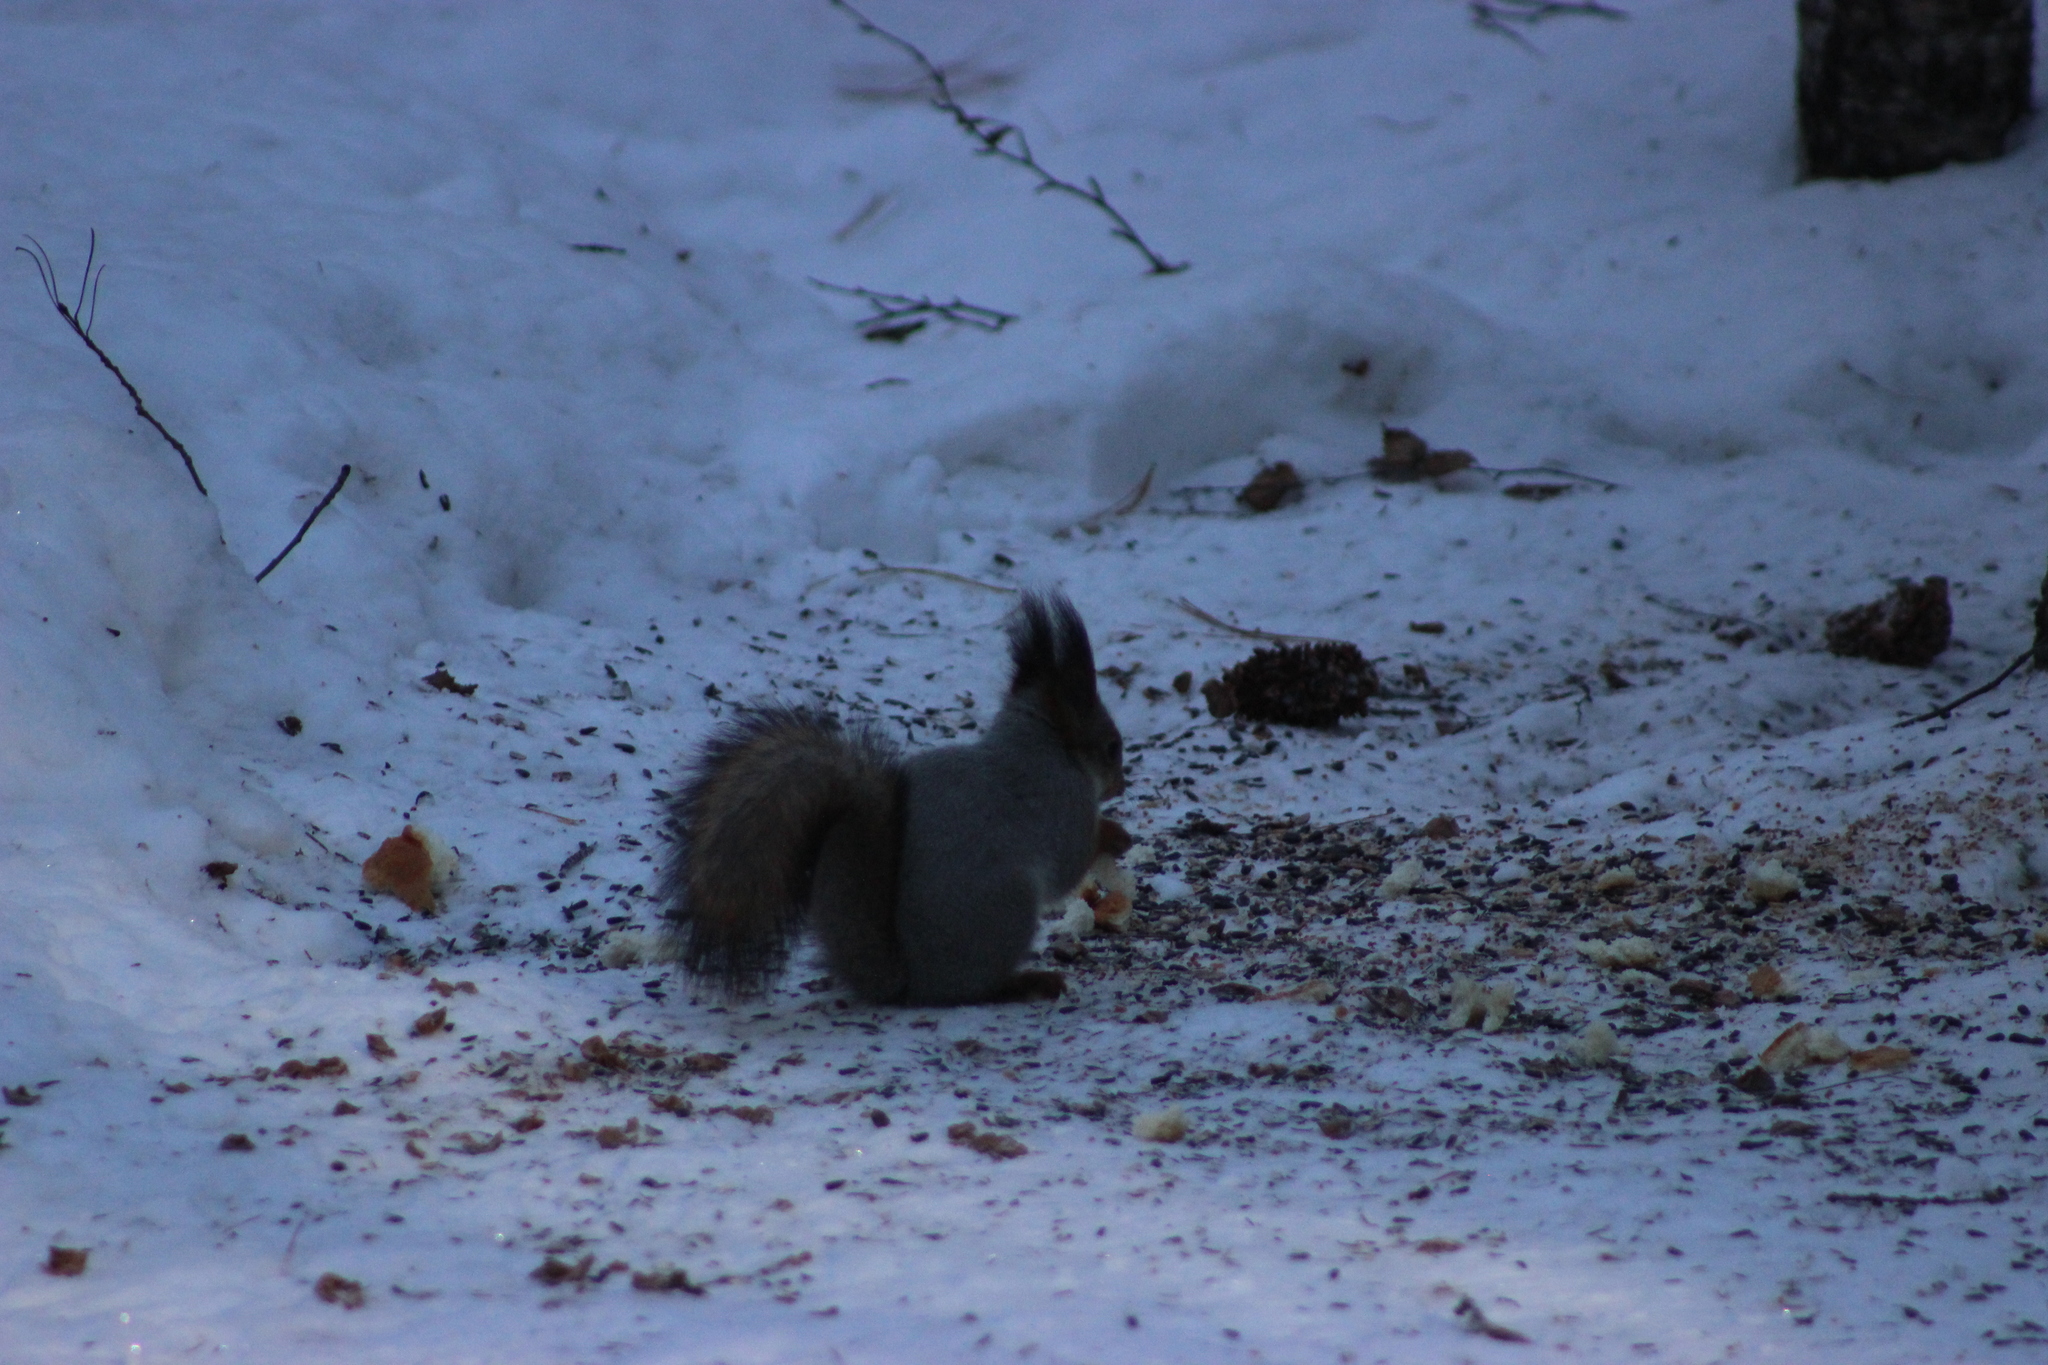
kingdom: Animalia
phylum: Chordata
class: Mammalia
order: Rodentia
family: Sciuridae
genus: Sciurus
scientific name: Sciurus vulgaris
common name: Eurasian red squirrel
